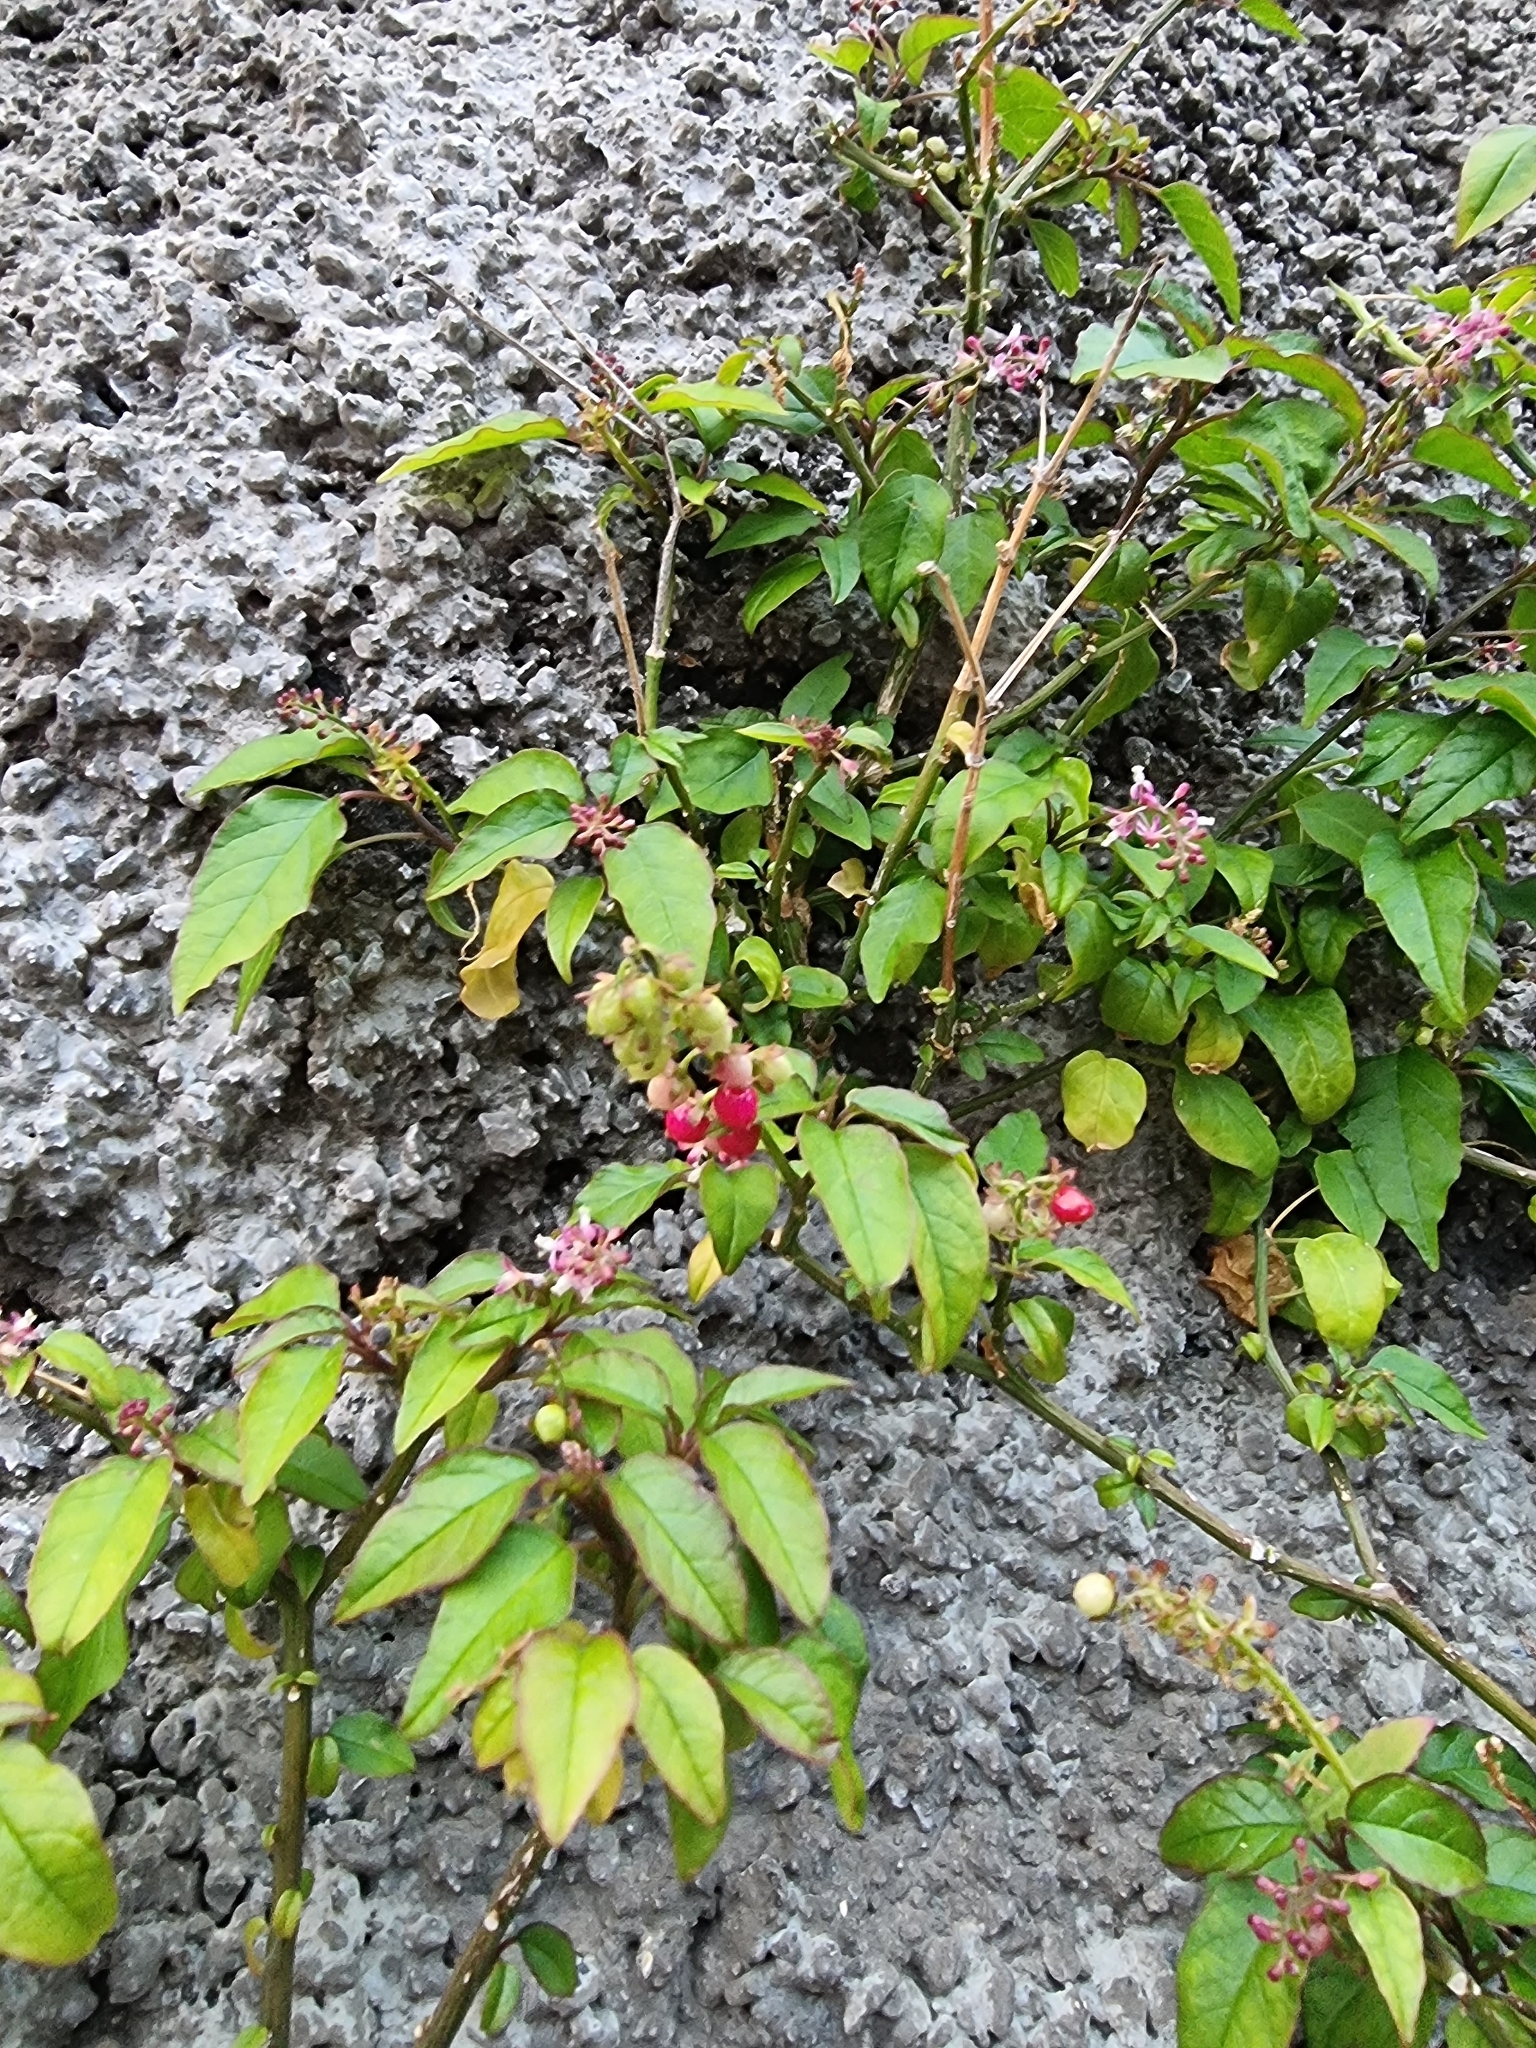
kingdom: Plantae
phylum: Tracheophyta
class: Magnoliopsida
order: Caryophyllales
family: Phytolaccaceae
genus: Rivina
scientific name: Rivina humilis
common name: Rougeplant
